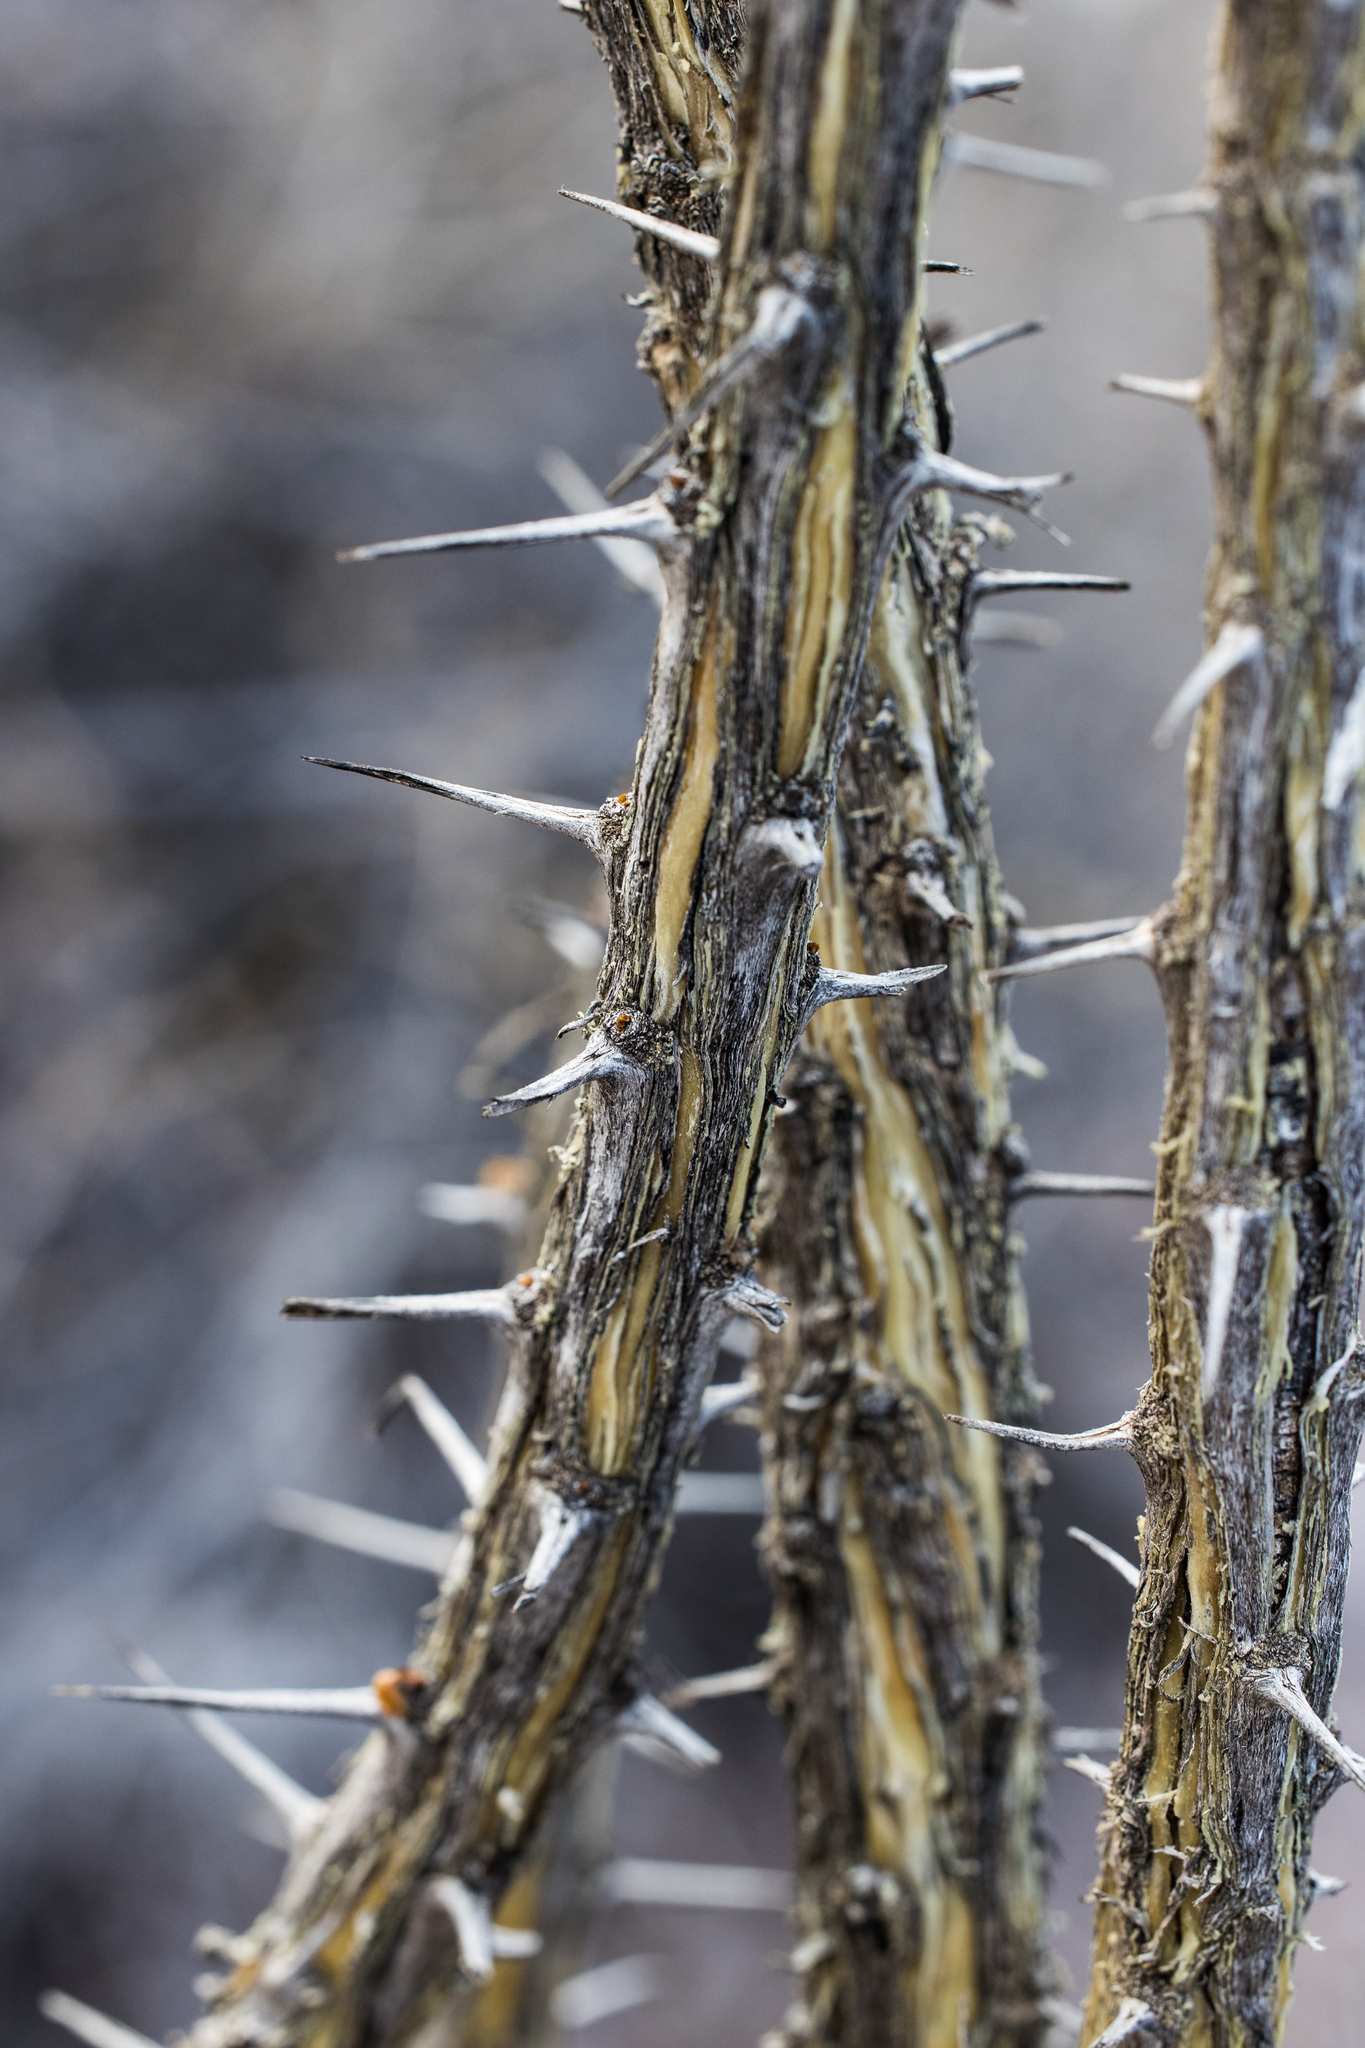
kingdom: Plantae
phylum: Tracheophyta
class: Magnoliopsida
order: Ericales
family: Fouquieriaceae
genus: Fouquieria
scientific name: Fouquieria splendens
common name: Vine-cactus
